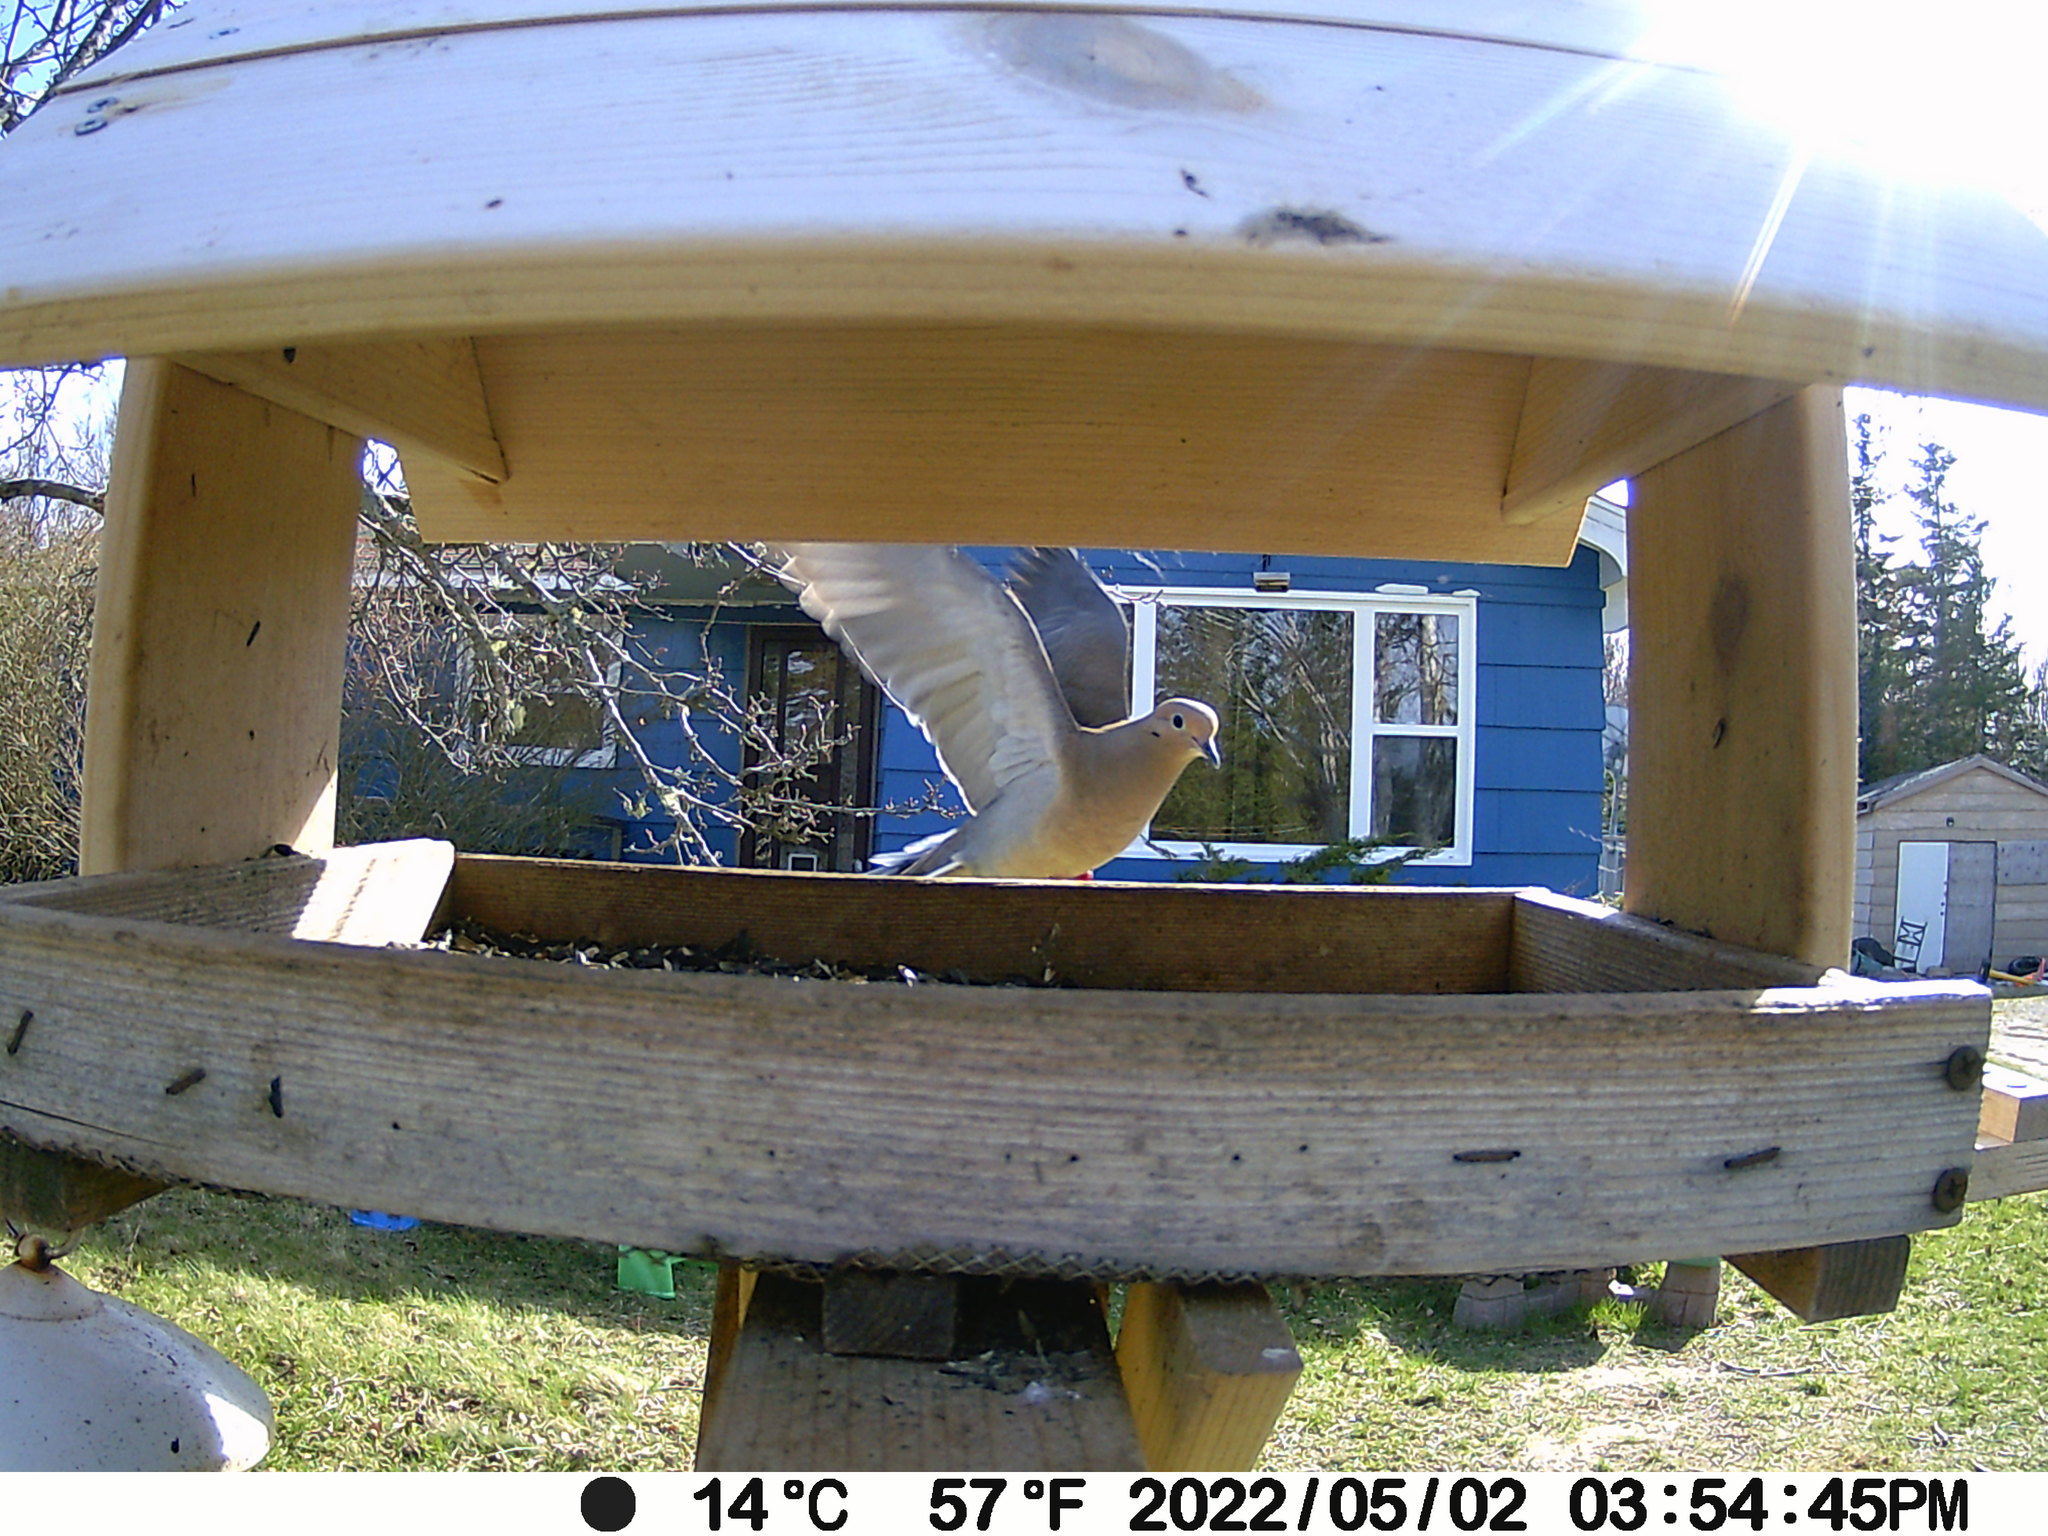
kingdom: Animalia
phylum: Chordata
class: Aves
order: Columbiformes
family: Columbidae
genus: Zenaida
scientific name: Zenaida macroura
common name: Mourning dove
